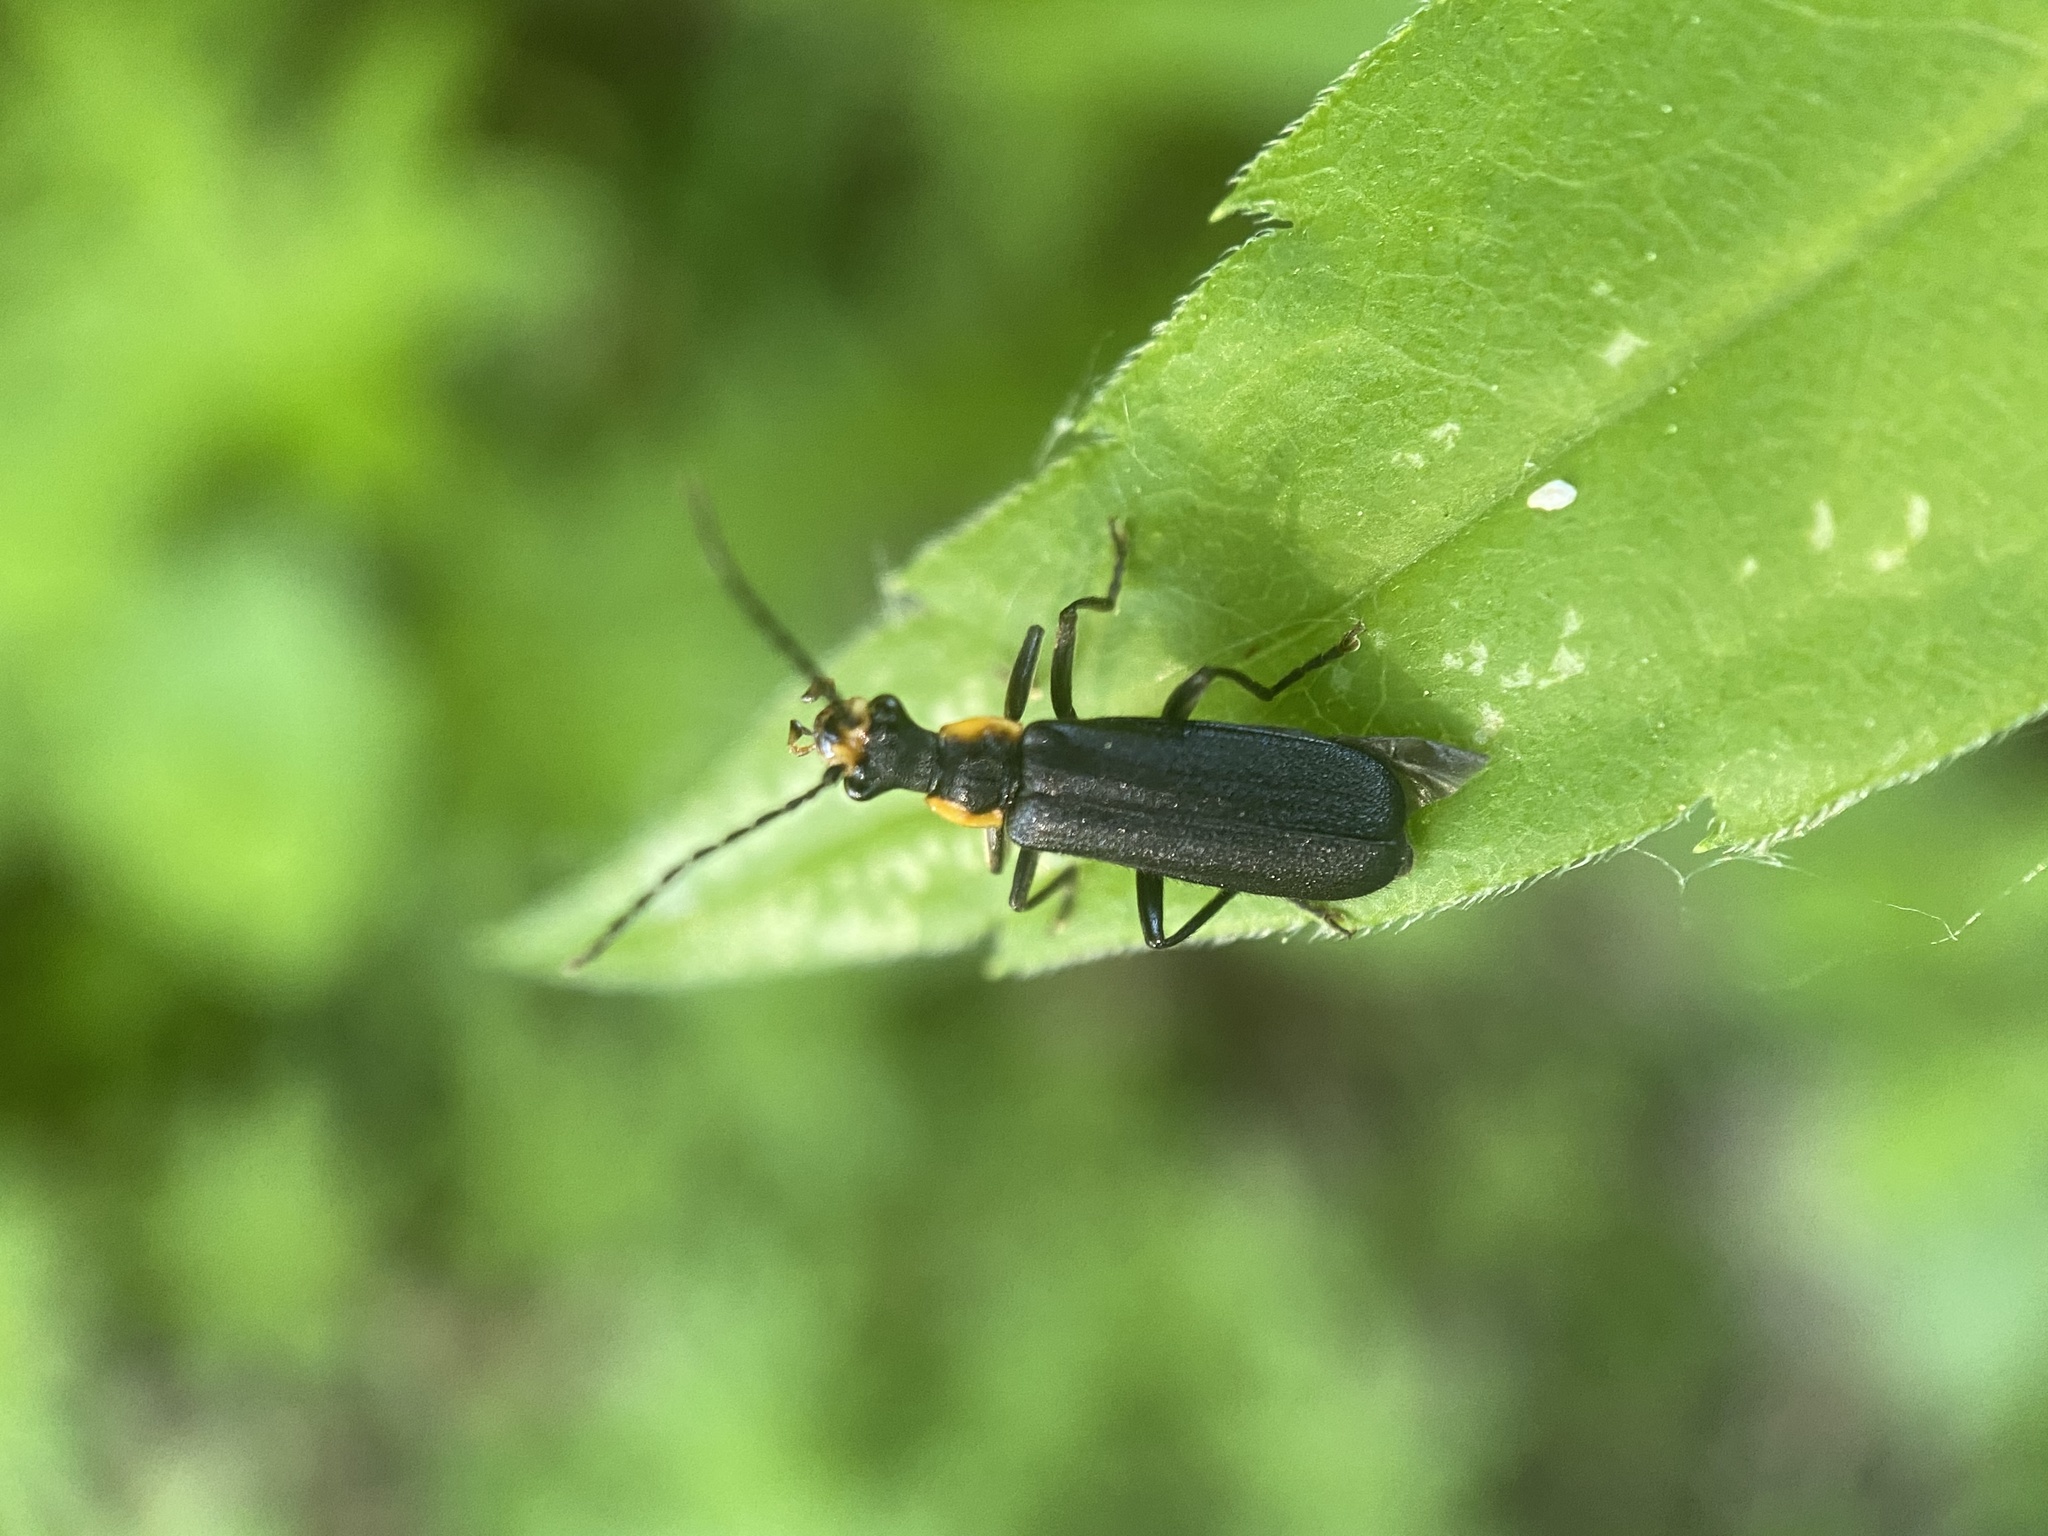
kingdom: Animalia
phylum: Arthropoda
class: Insecta
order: Coleoptera
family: Cantharidae
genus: Podabrus
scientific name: Podabrus rugosulus
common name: Wrinkled soldier beetle
